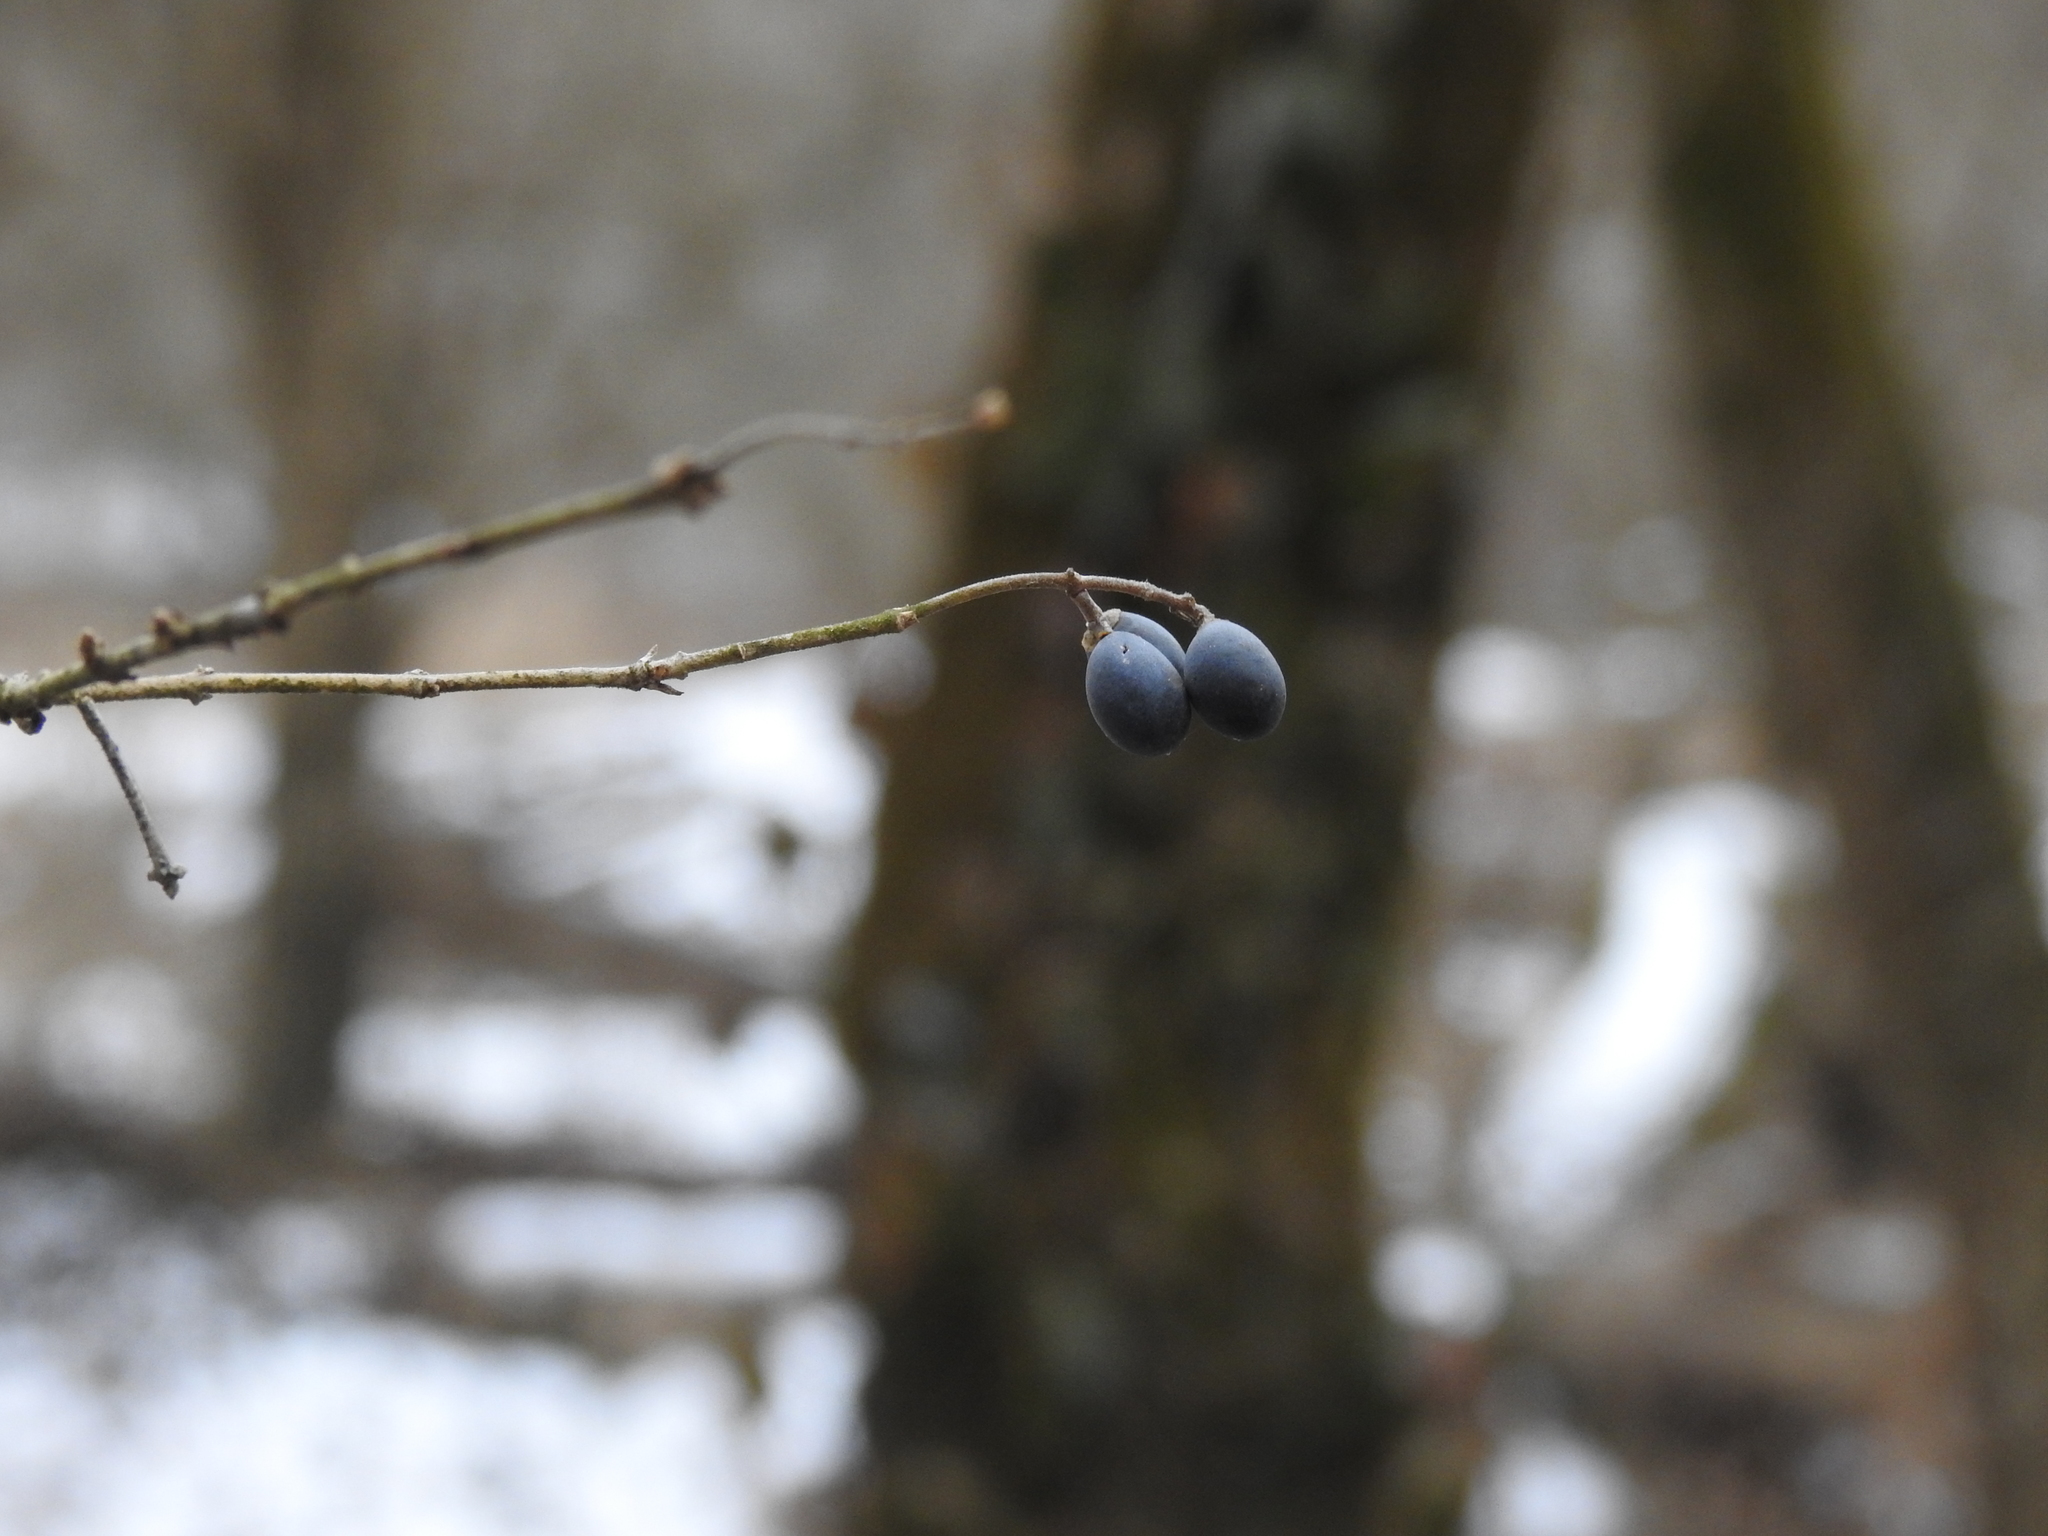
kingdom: Plantae
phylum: Tracheophyta
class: Magnoliopsida
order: Lamiales
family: Oleaceae
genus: Ligustrum
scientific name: Ligustrum obtusifolium
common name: Border privet
